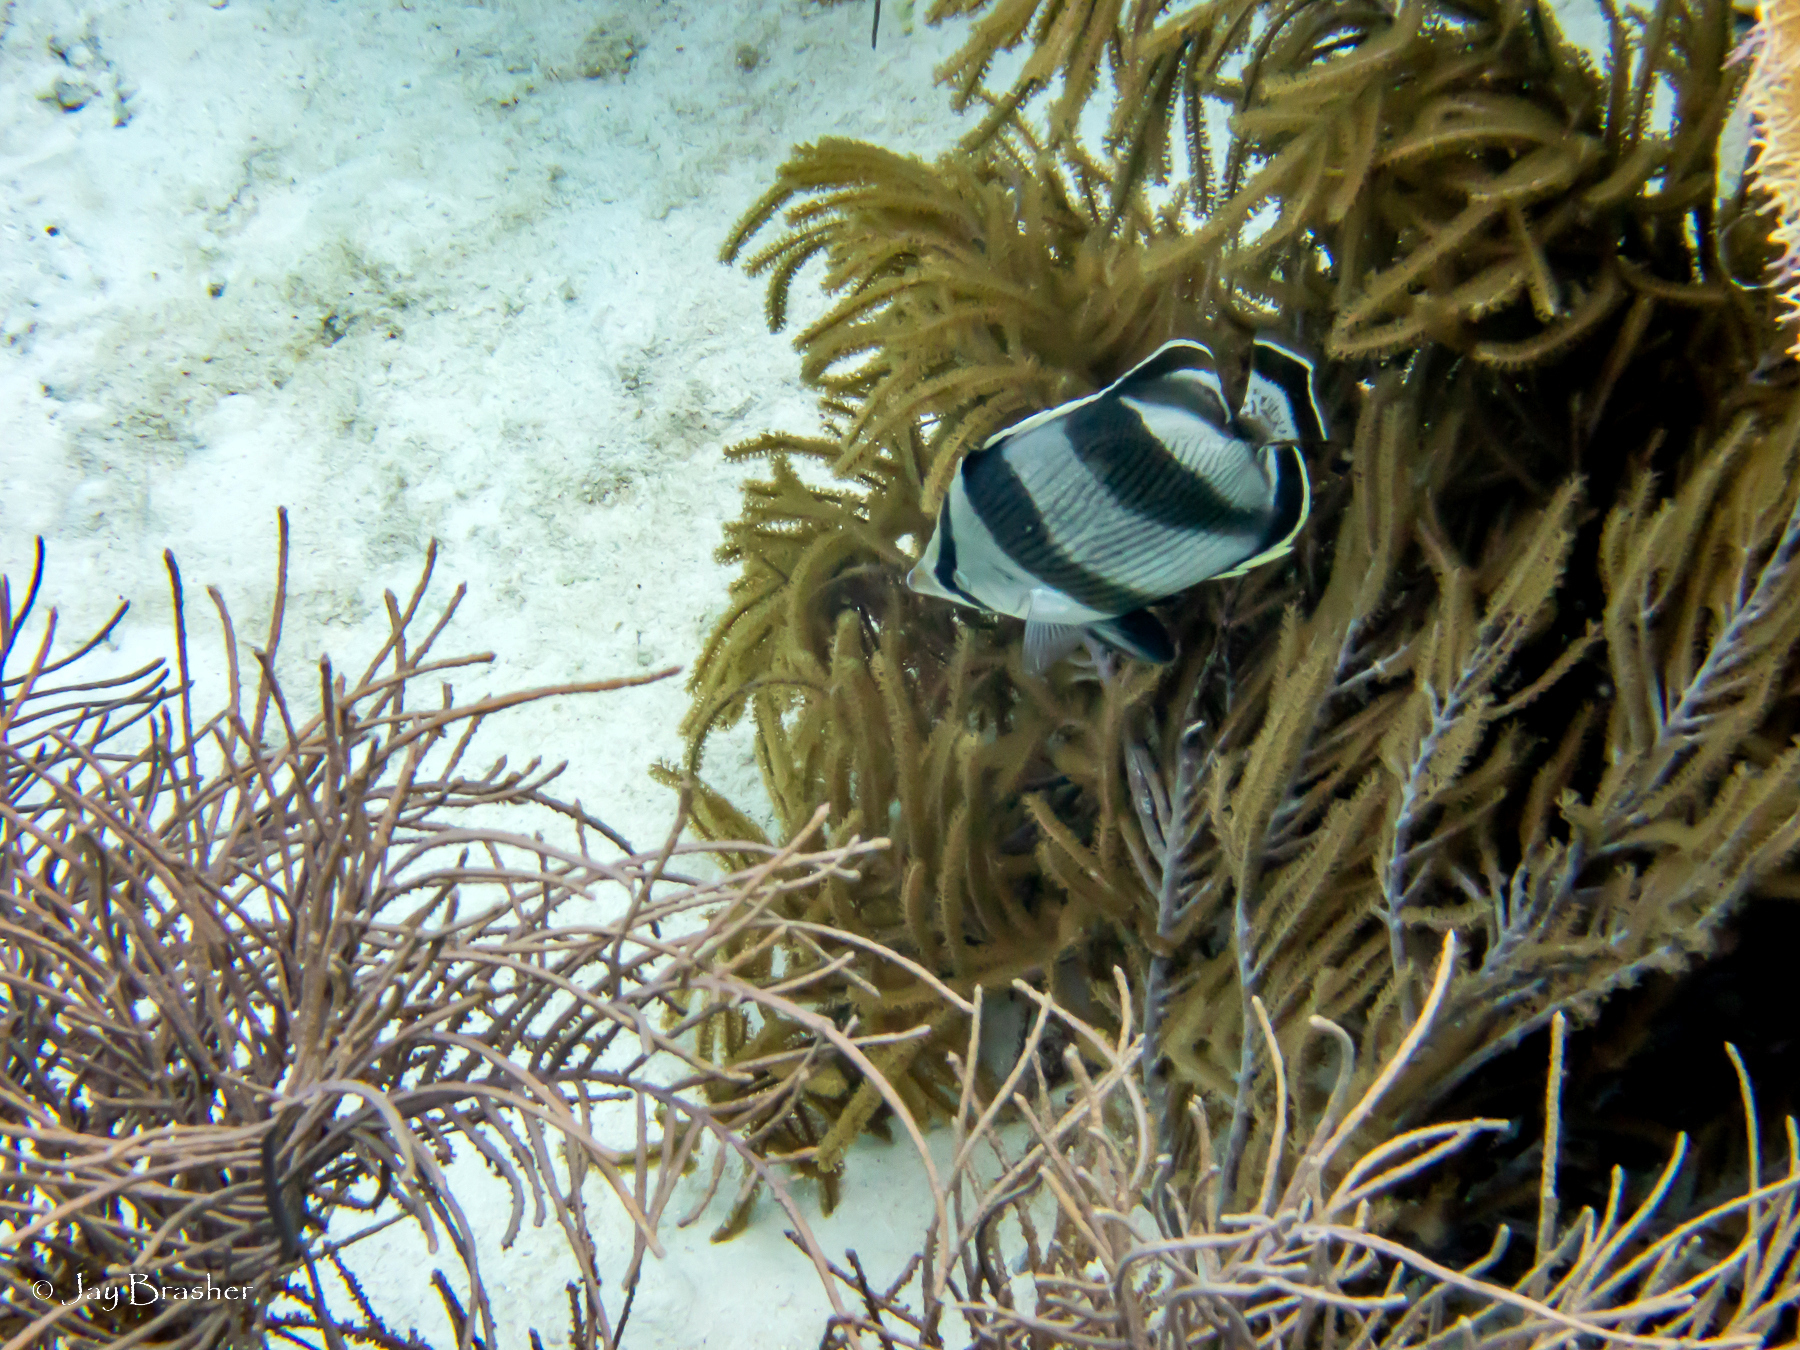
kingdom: Animalia
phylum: Chordata
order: Perciformes
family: Chaetodontidae
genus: Chaetodon
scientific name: Chaetodon striatus
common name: Banded butterflyfish
